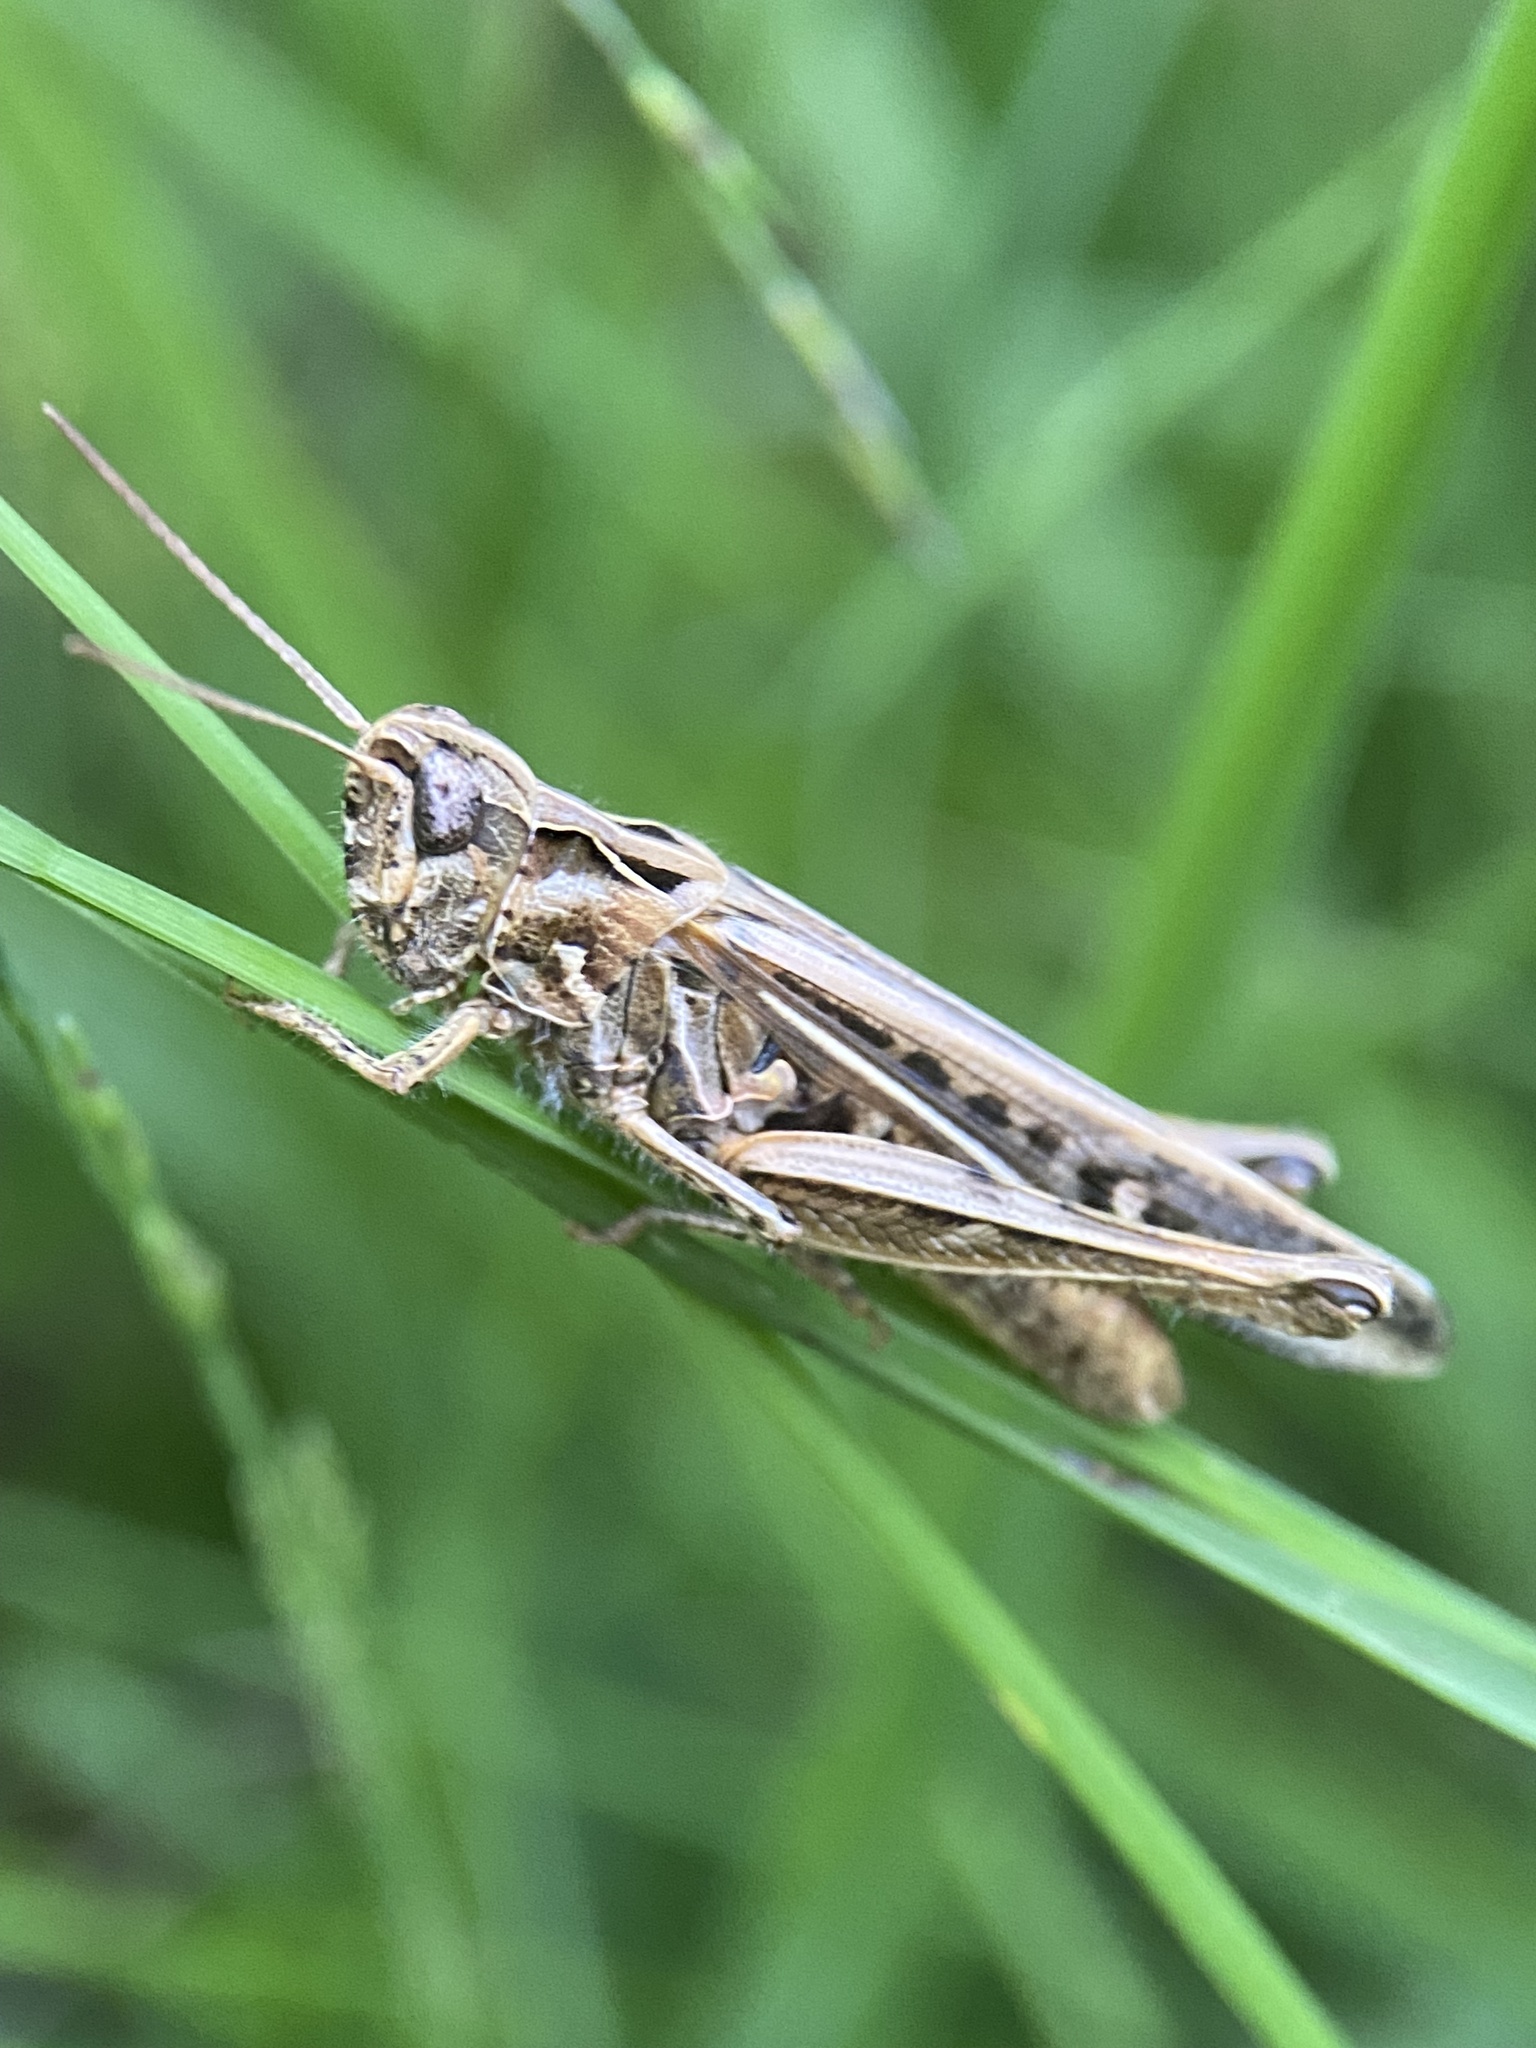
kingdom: Animalia
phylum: Arthropoda
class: Insecta
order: Orthoptera
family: Acrididae
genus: Chorthippus
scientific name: Chorthippus brunneus
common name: Field grasshopper
